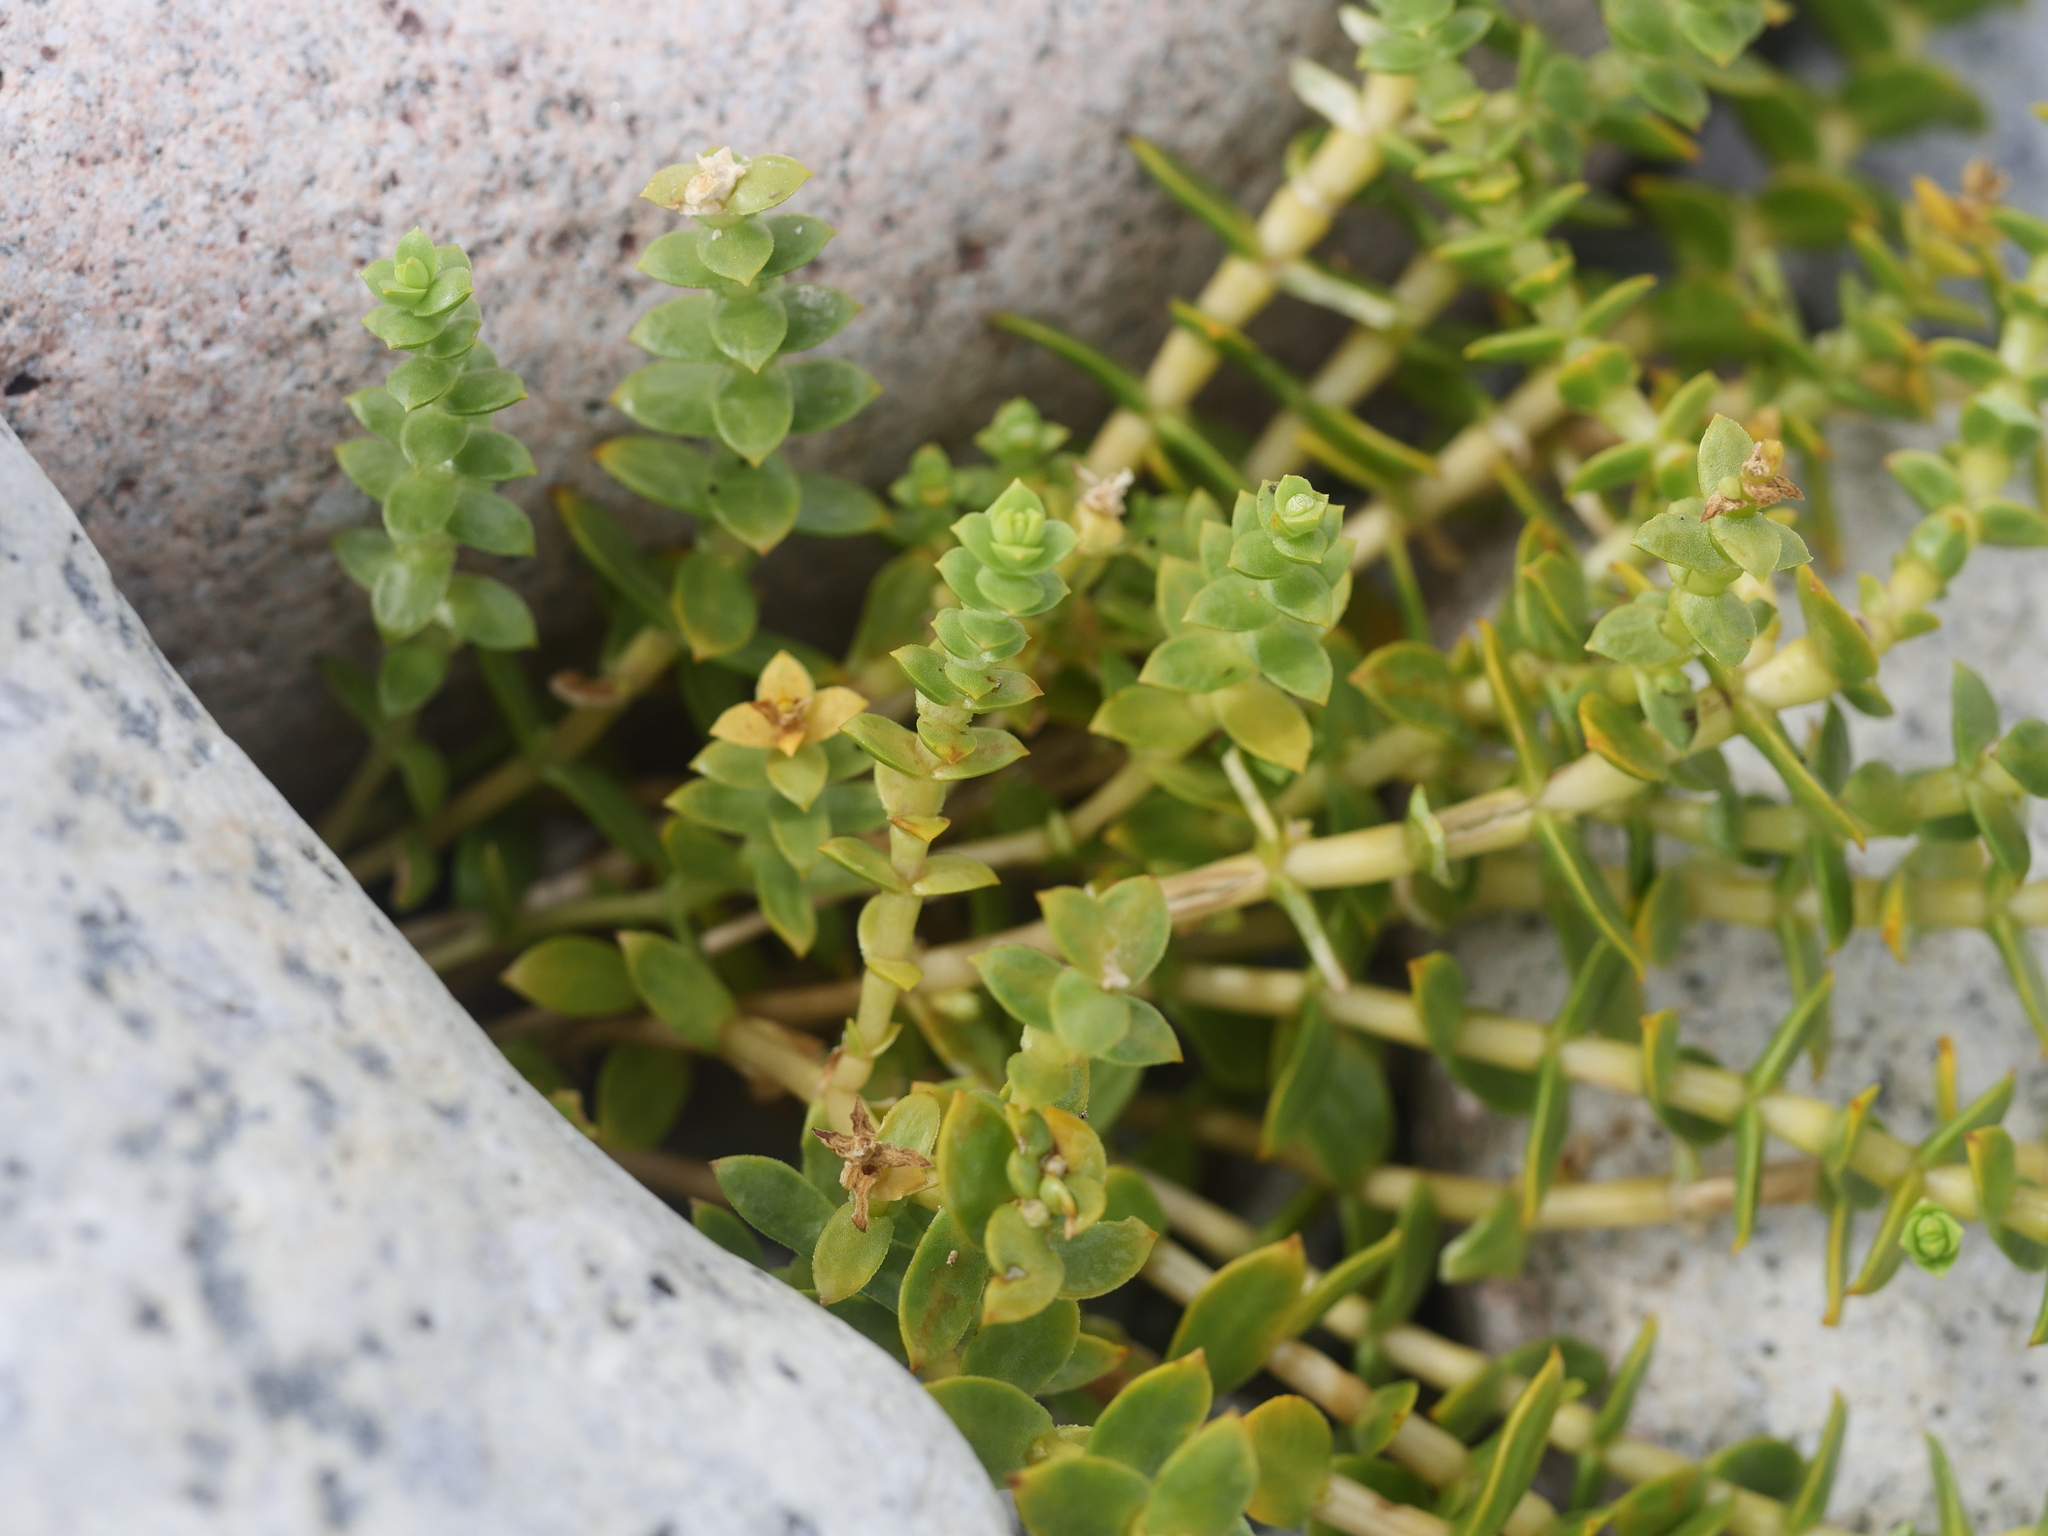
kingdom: Plantae
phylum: Tracheophyta
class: Magnoliopsida
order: Caryophyllales
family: Caryophyllaceae
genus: Honckenya
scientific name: Honckenya peploides
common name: Sea sandwort
